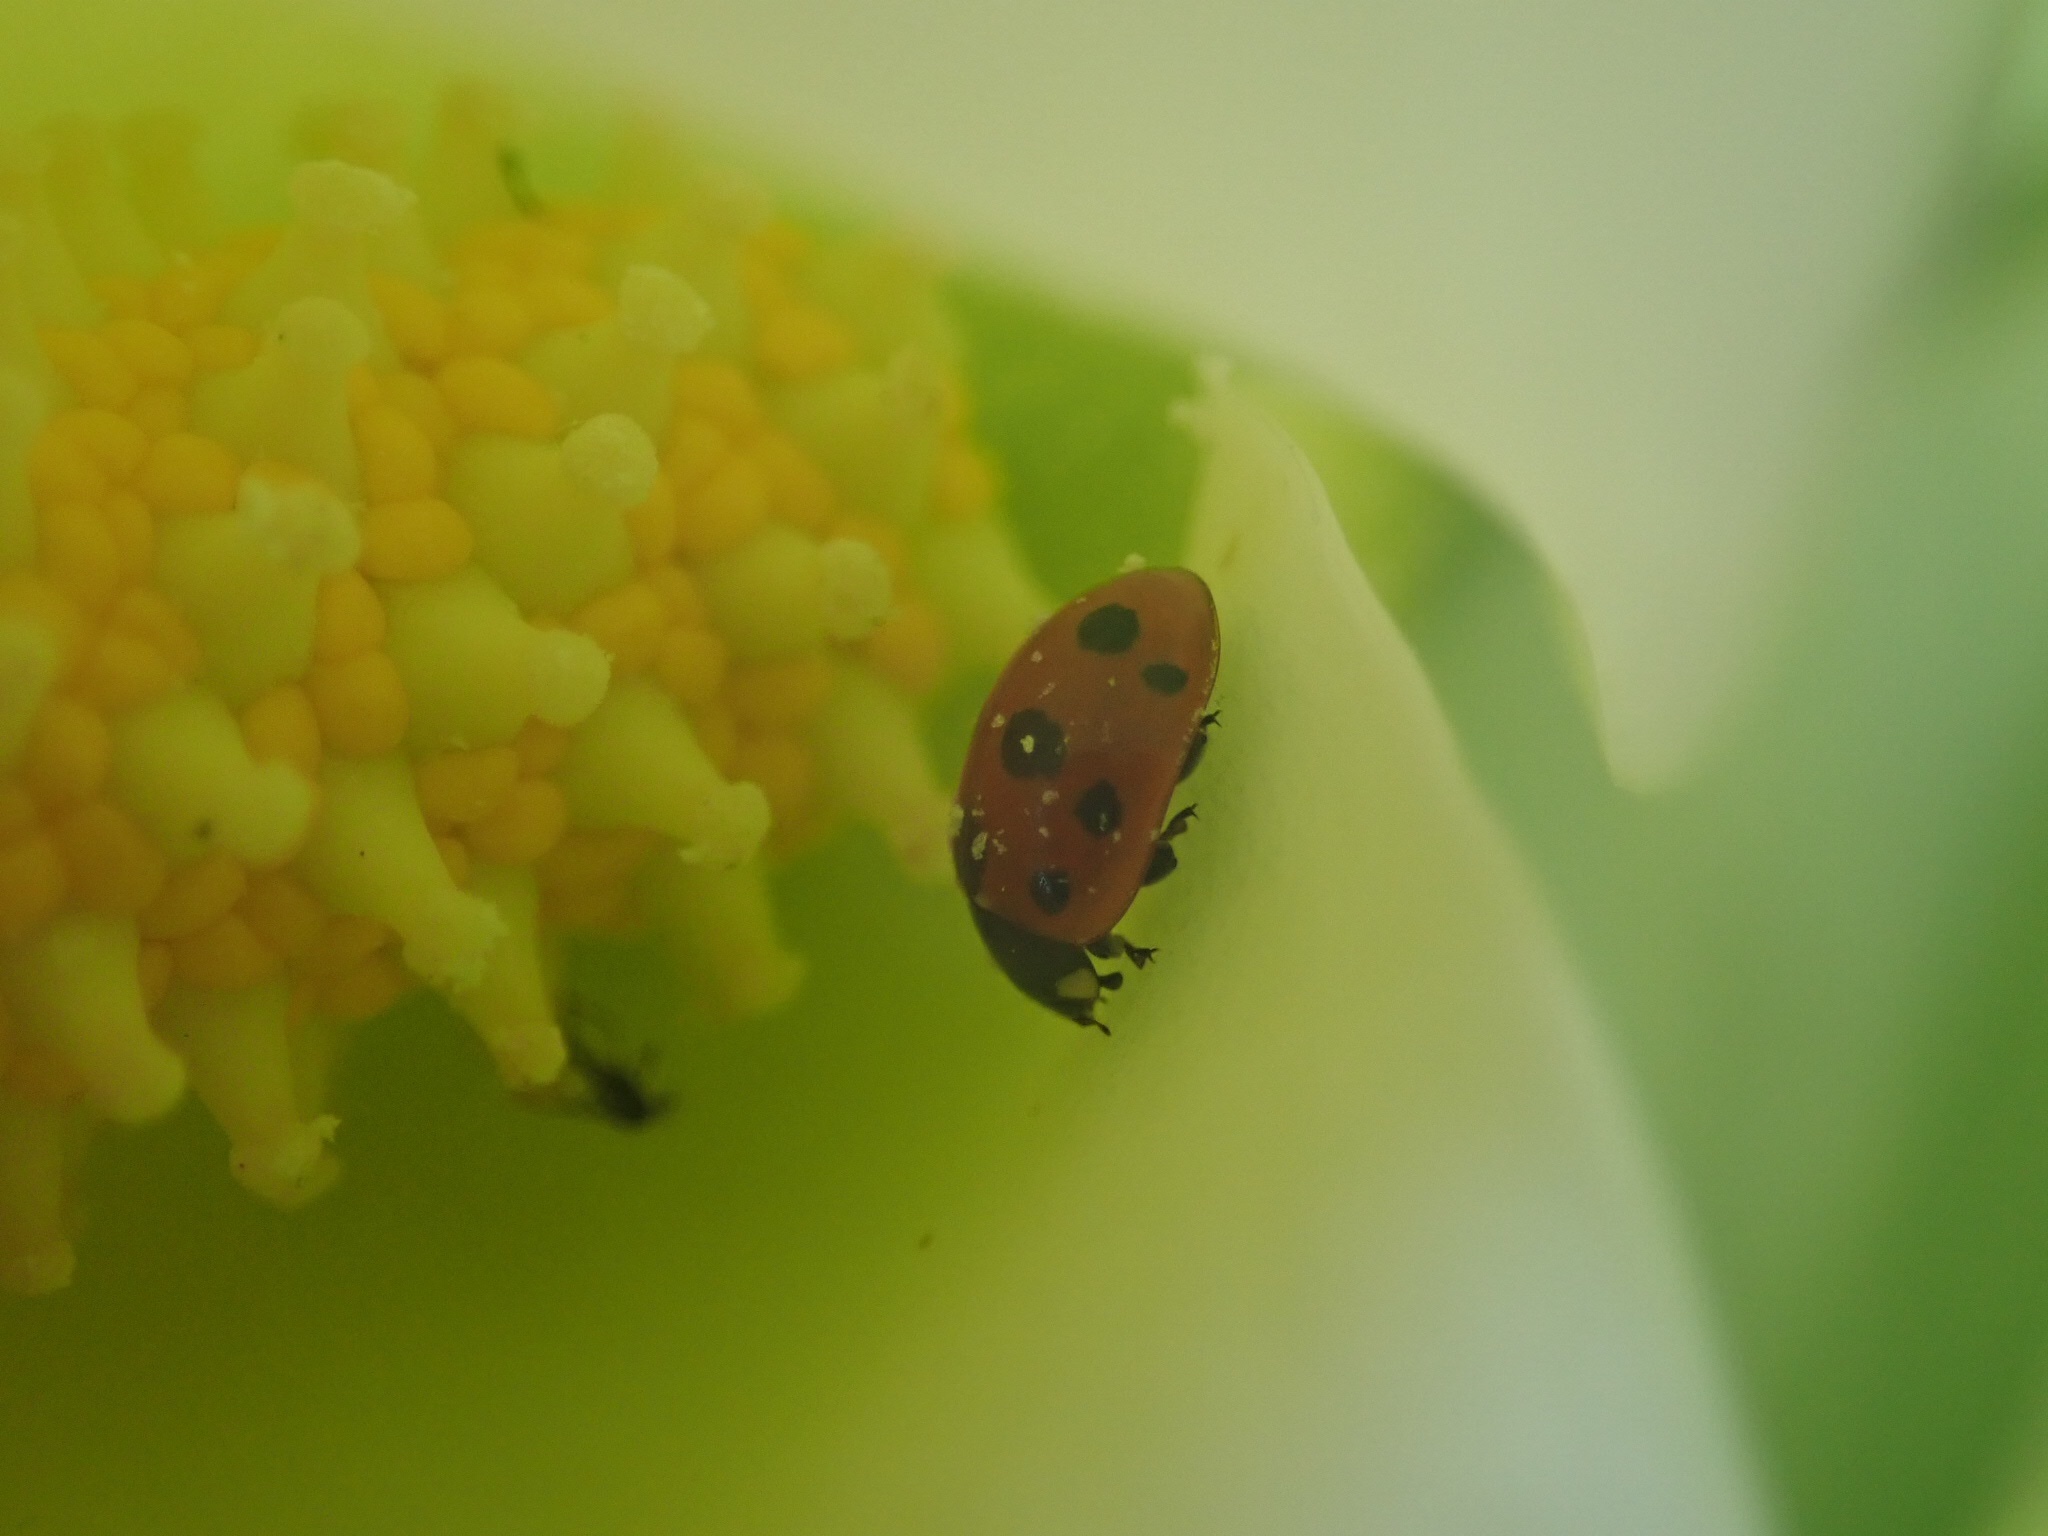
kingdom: Animalia
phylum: Arthropoda
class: Insecta
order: Coleoptera
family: Coccinellidae
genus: Coccinella
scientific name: Coccinella undecimpunctata
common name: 11-spot ladybird
